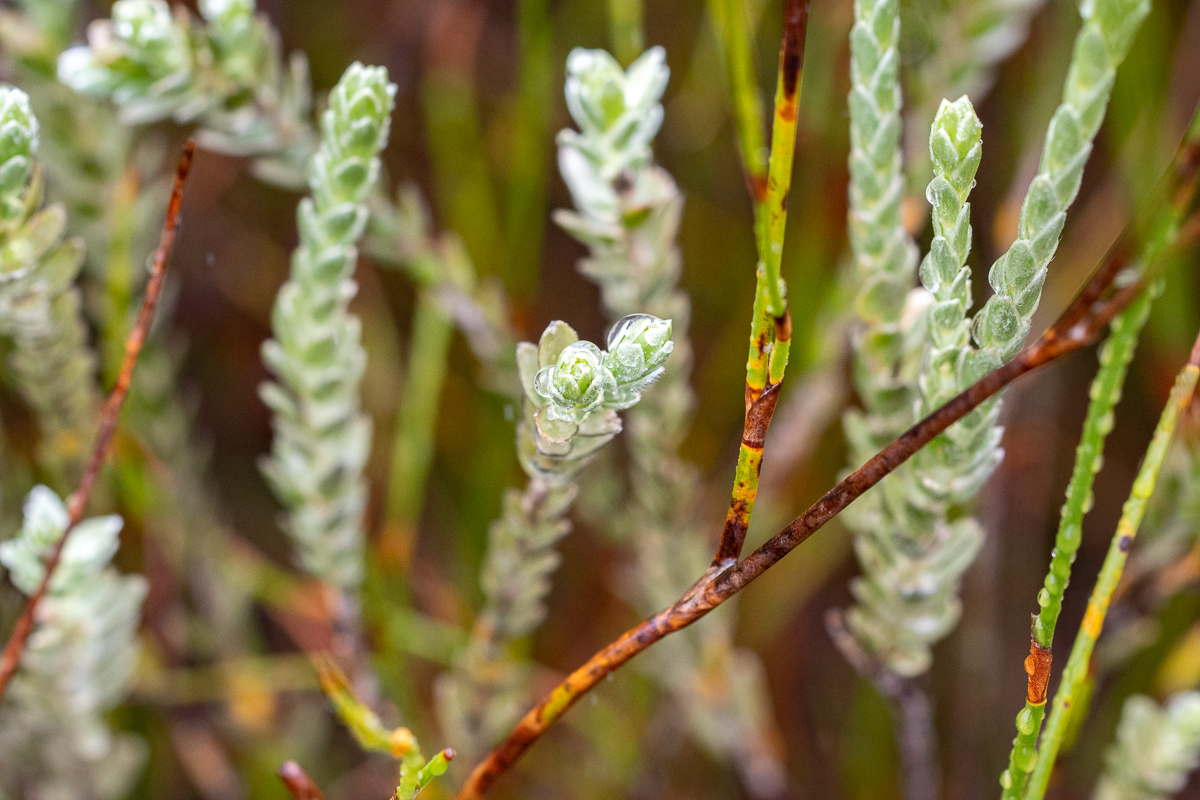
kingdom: Plantae
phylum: Tracheophyta
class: Magnoliopsida
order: Malvales
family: Thymelaeaceae
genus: Gnidia
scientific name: Gnidia anomala
